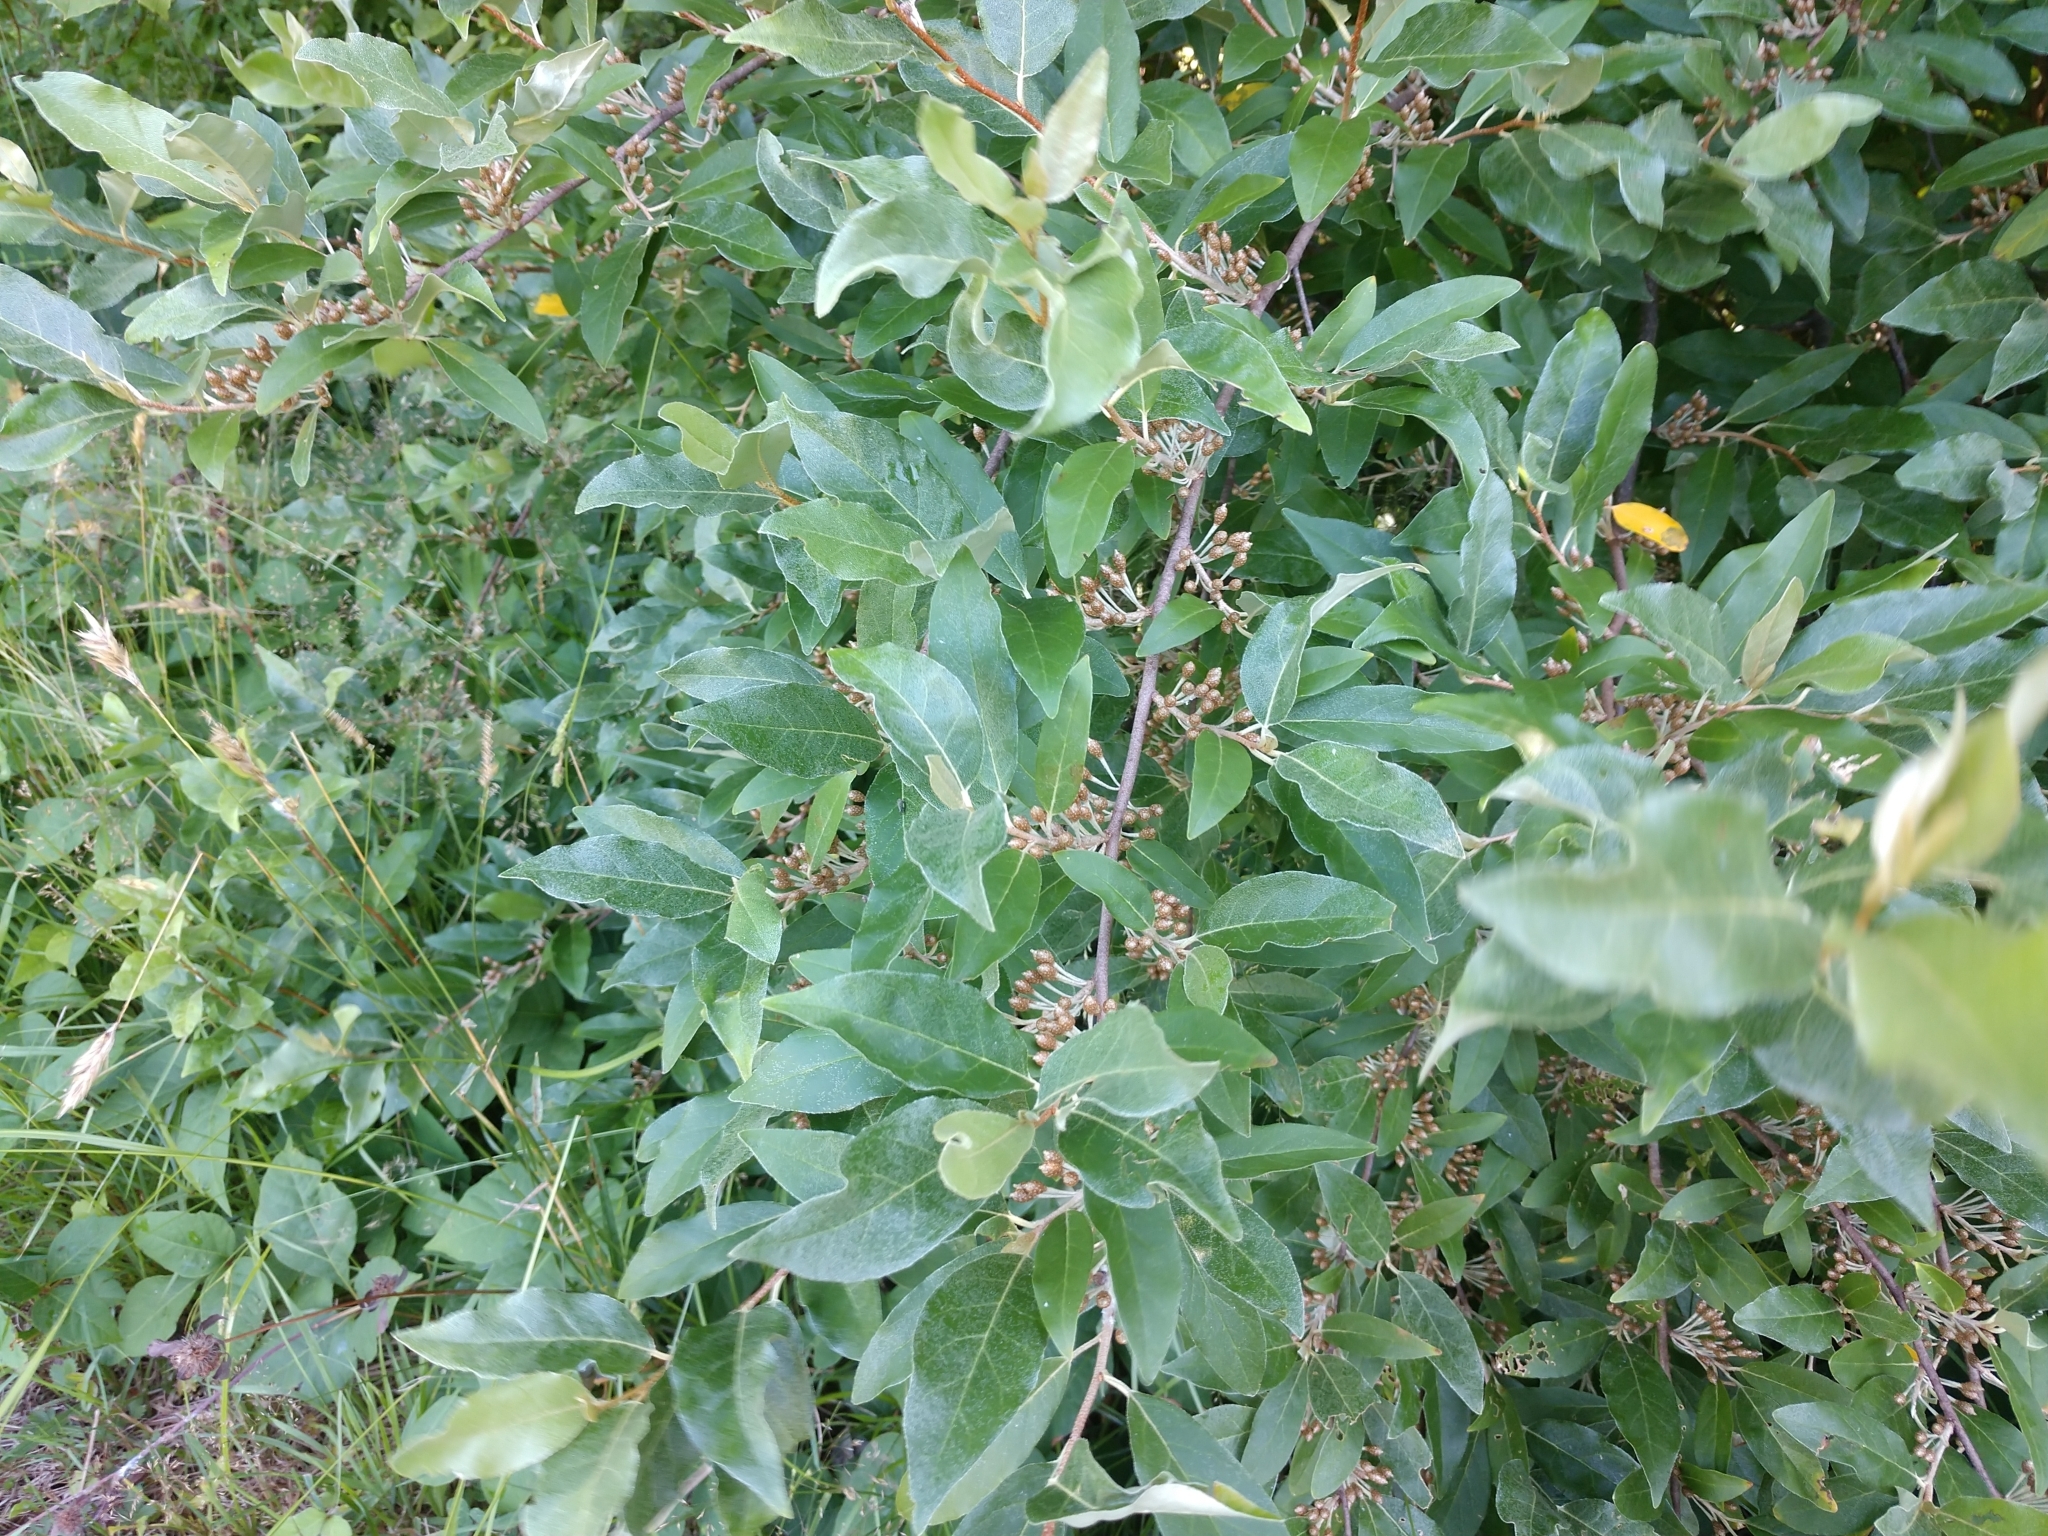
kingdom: Plantae
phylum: Tracheophyta
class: Magnoliopsida
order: Rosales
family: Elaeagnaceae
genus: Elaeagnus
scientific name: Elaeagnus umbellata
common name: Autumn olive
